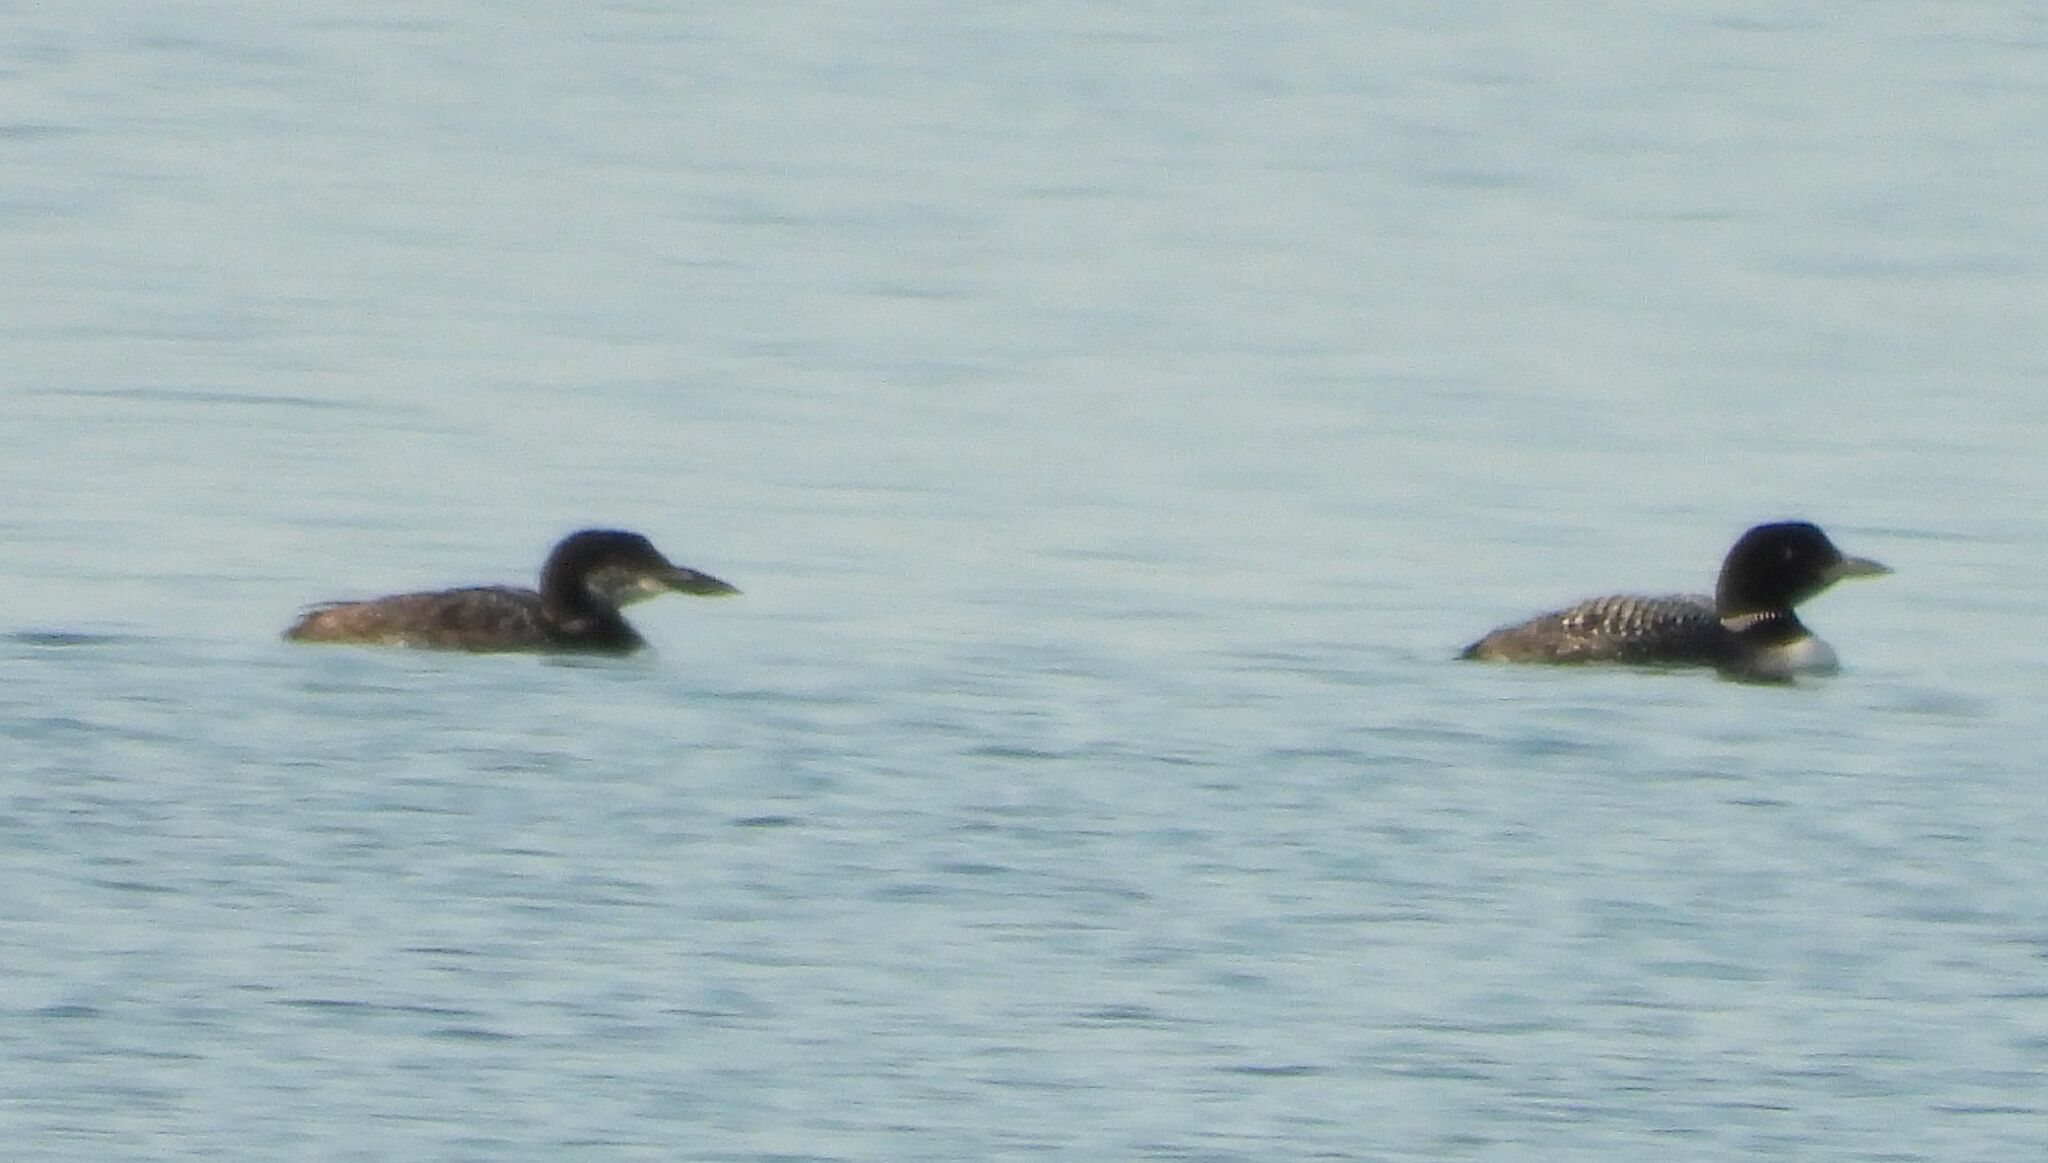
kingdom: Animalia
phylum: Chordata
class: Aves
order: Gaviiformes
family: Gaviidae
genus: Gavia
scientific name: Gavia immer
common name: Common loon
